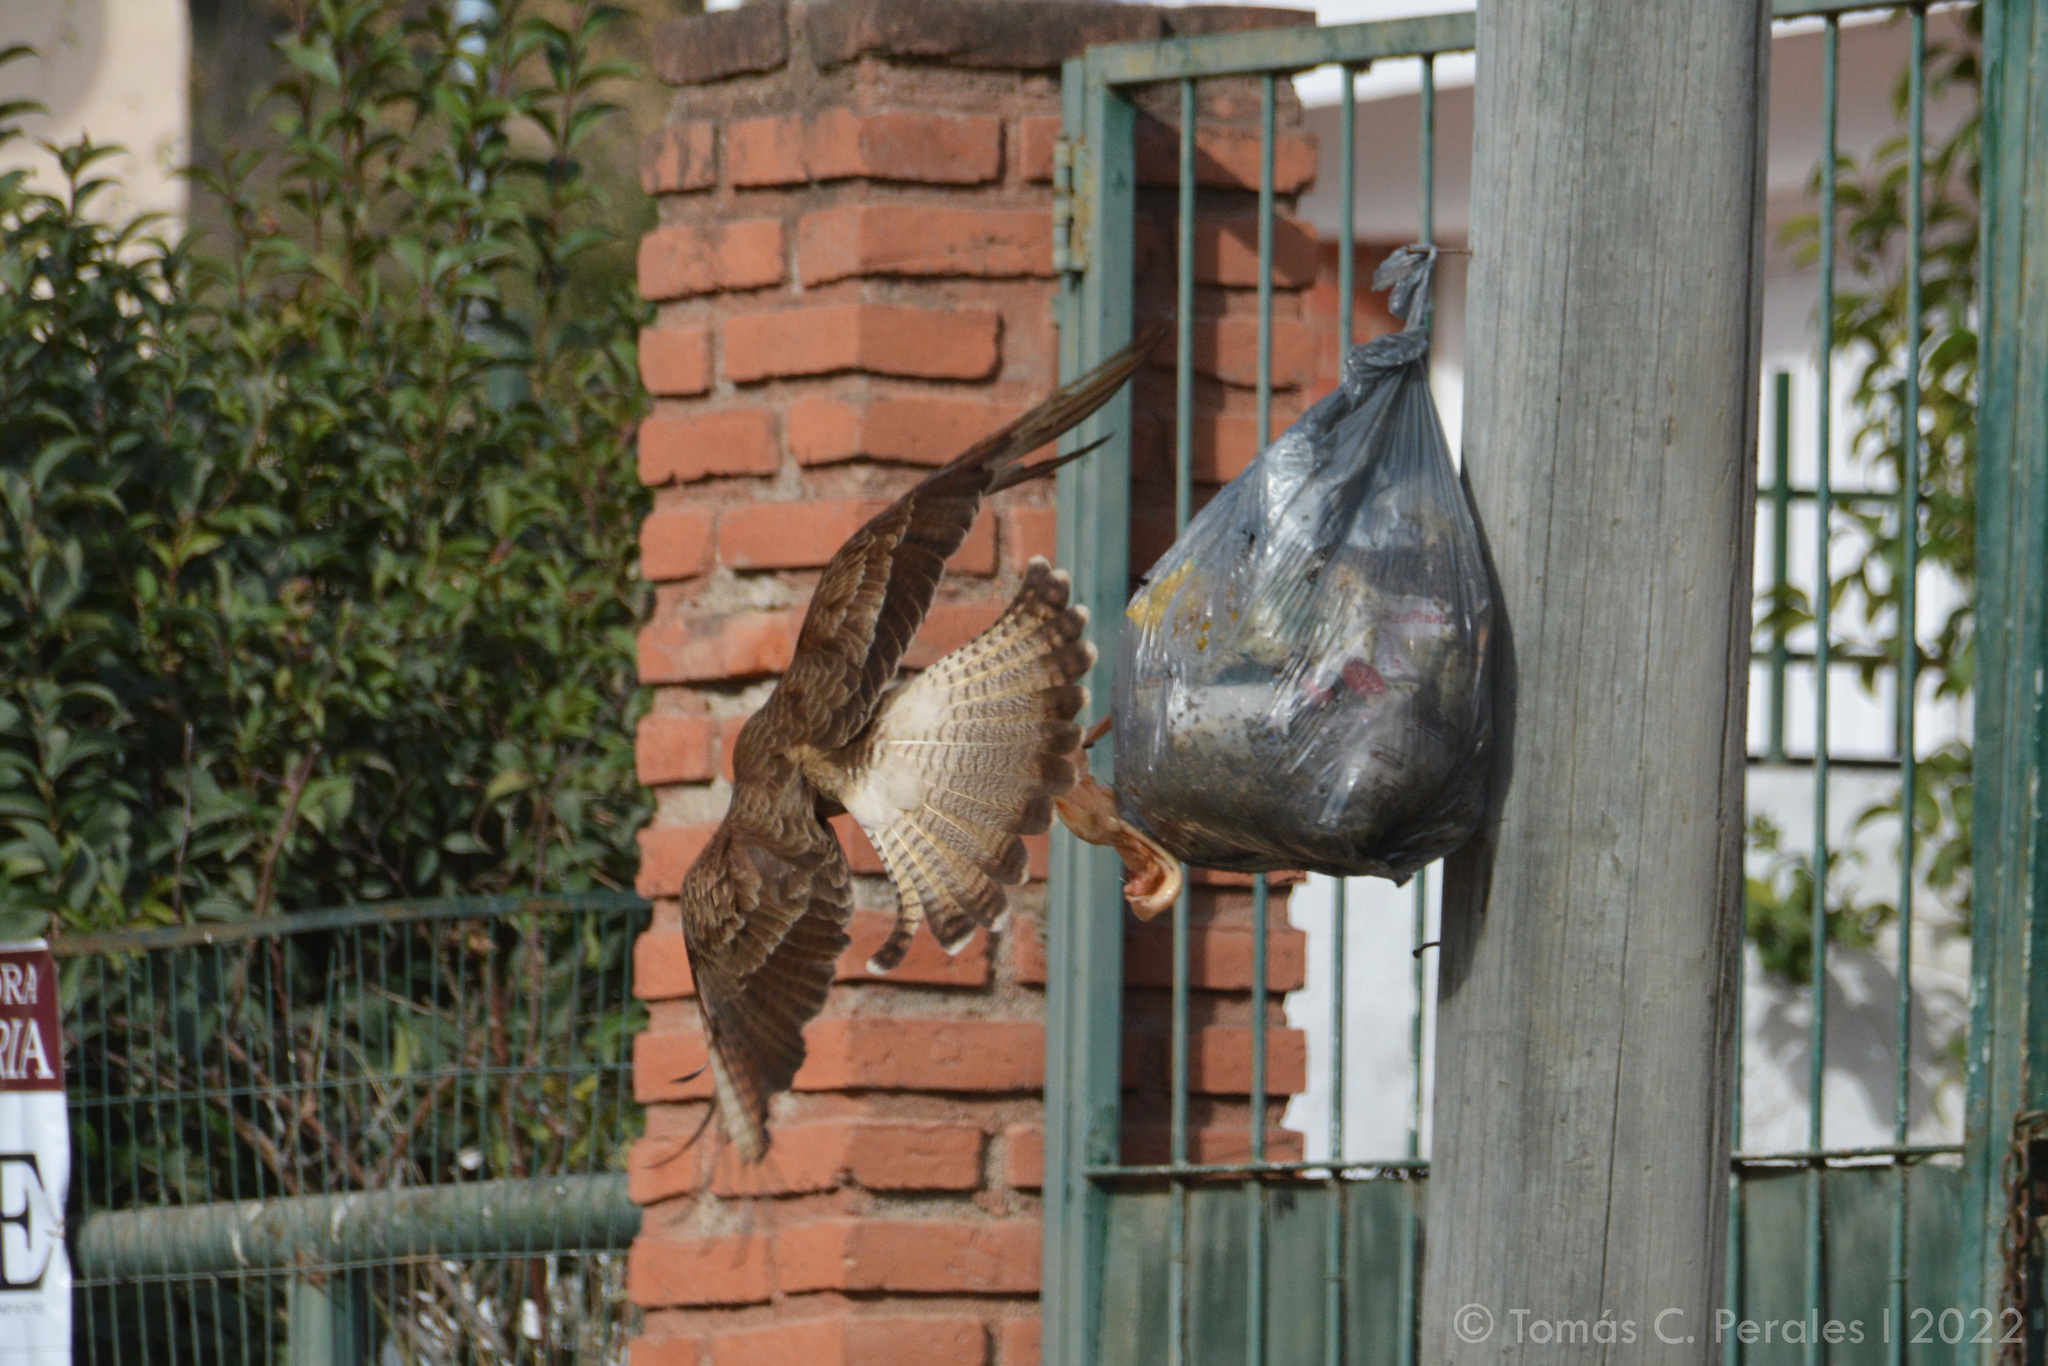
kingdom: Animalia
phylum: Chordata
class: Aves
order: Falconiformes
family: Falconidae
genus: Daptrius
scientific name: Daptrius
